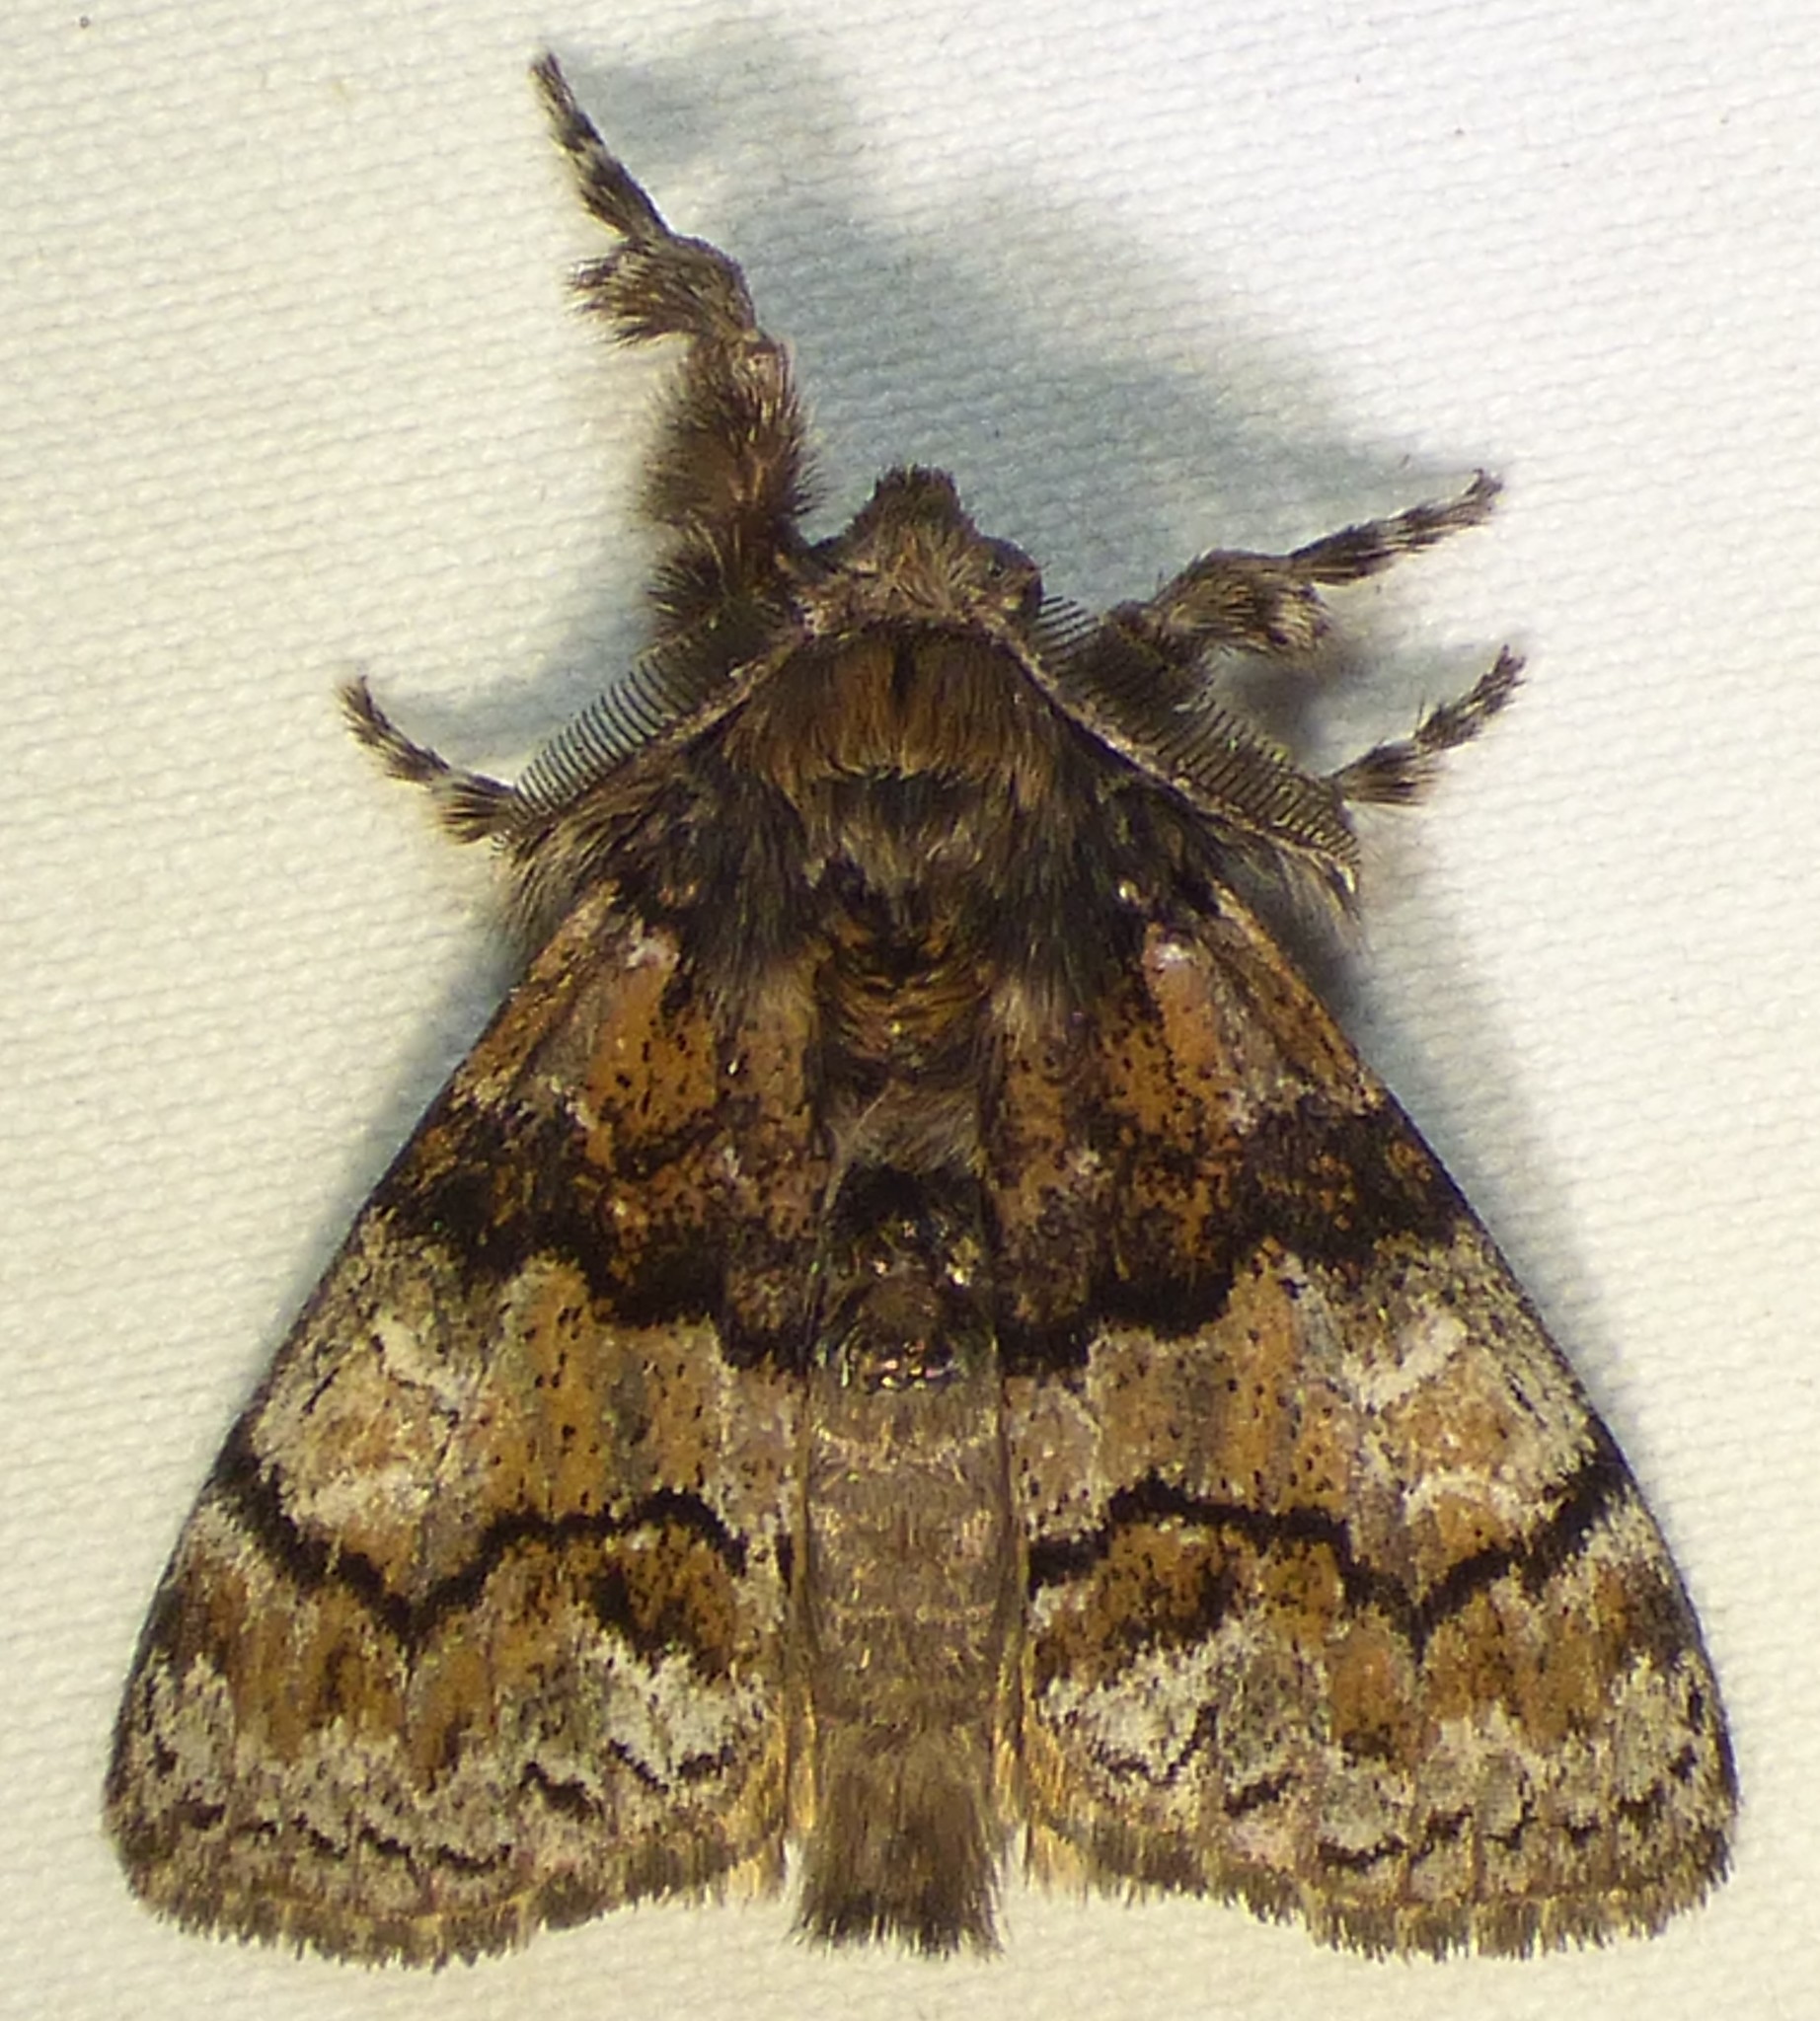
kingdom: Animalia
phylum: Arthropoda
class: Insecta
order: Lepidoptera
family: Erebidae
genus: Dasychira
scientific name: Dasychira manto
